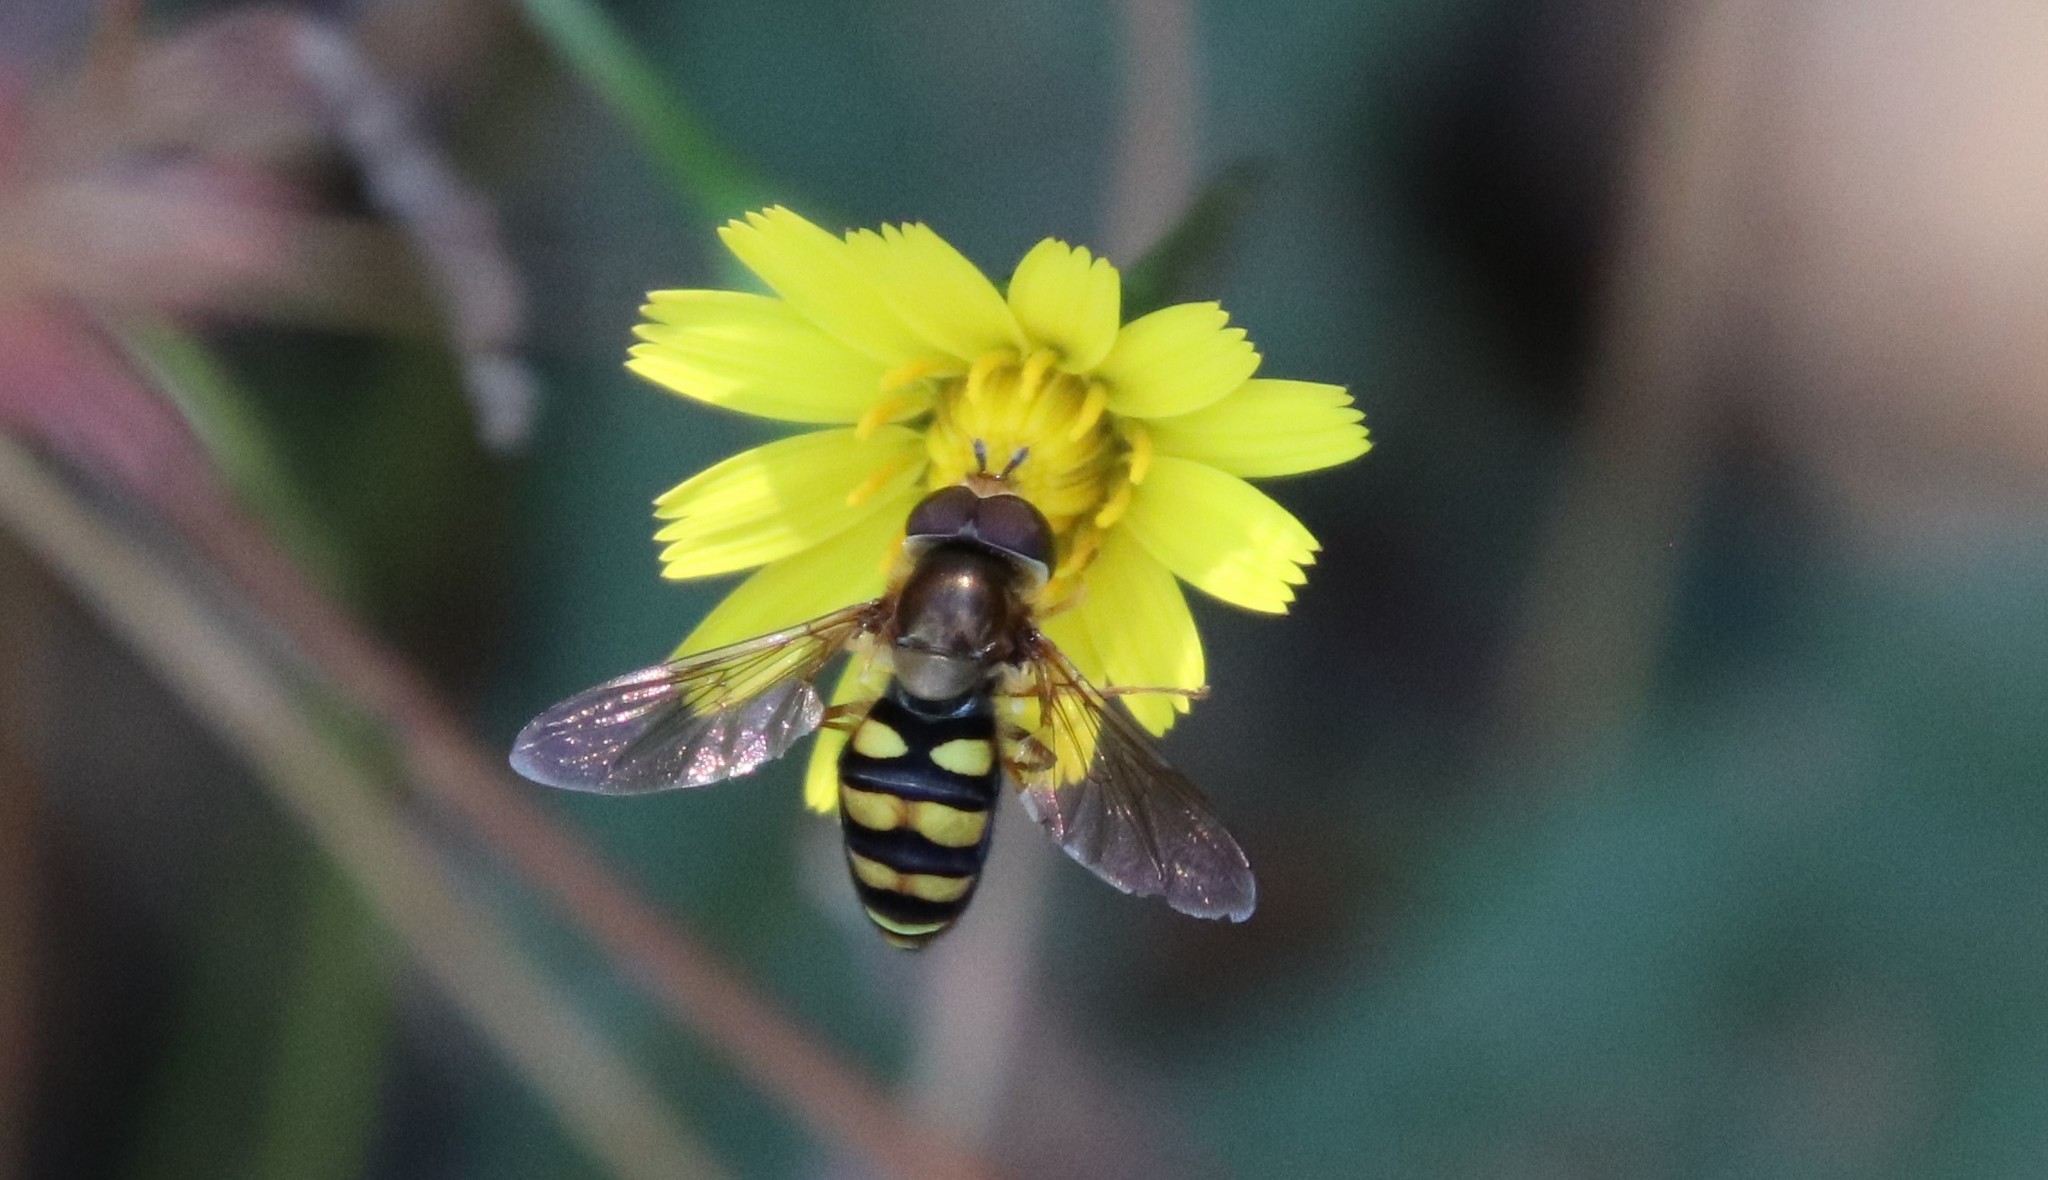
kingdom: Animalia
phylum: Arthropoda
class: Insecta
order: Diptera
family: Syrphidae
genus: Eupeodes
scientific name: Eupeodes fumipennis
